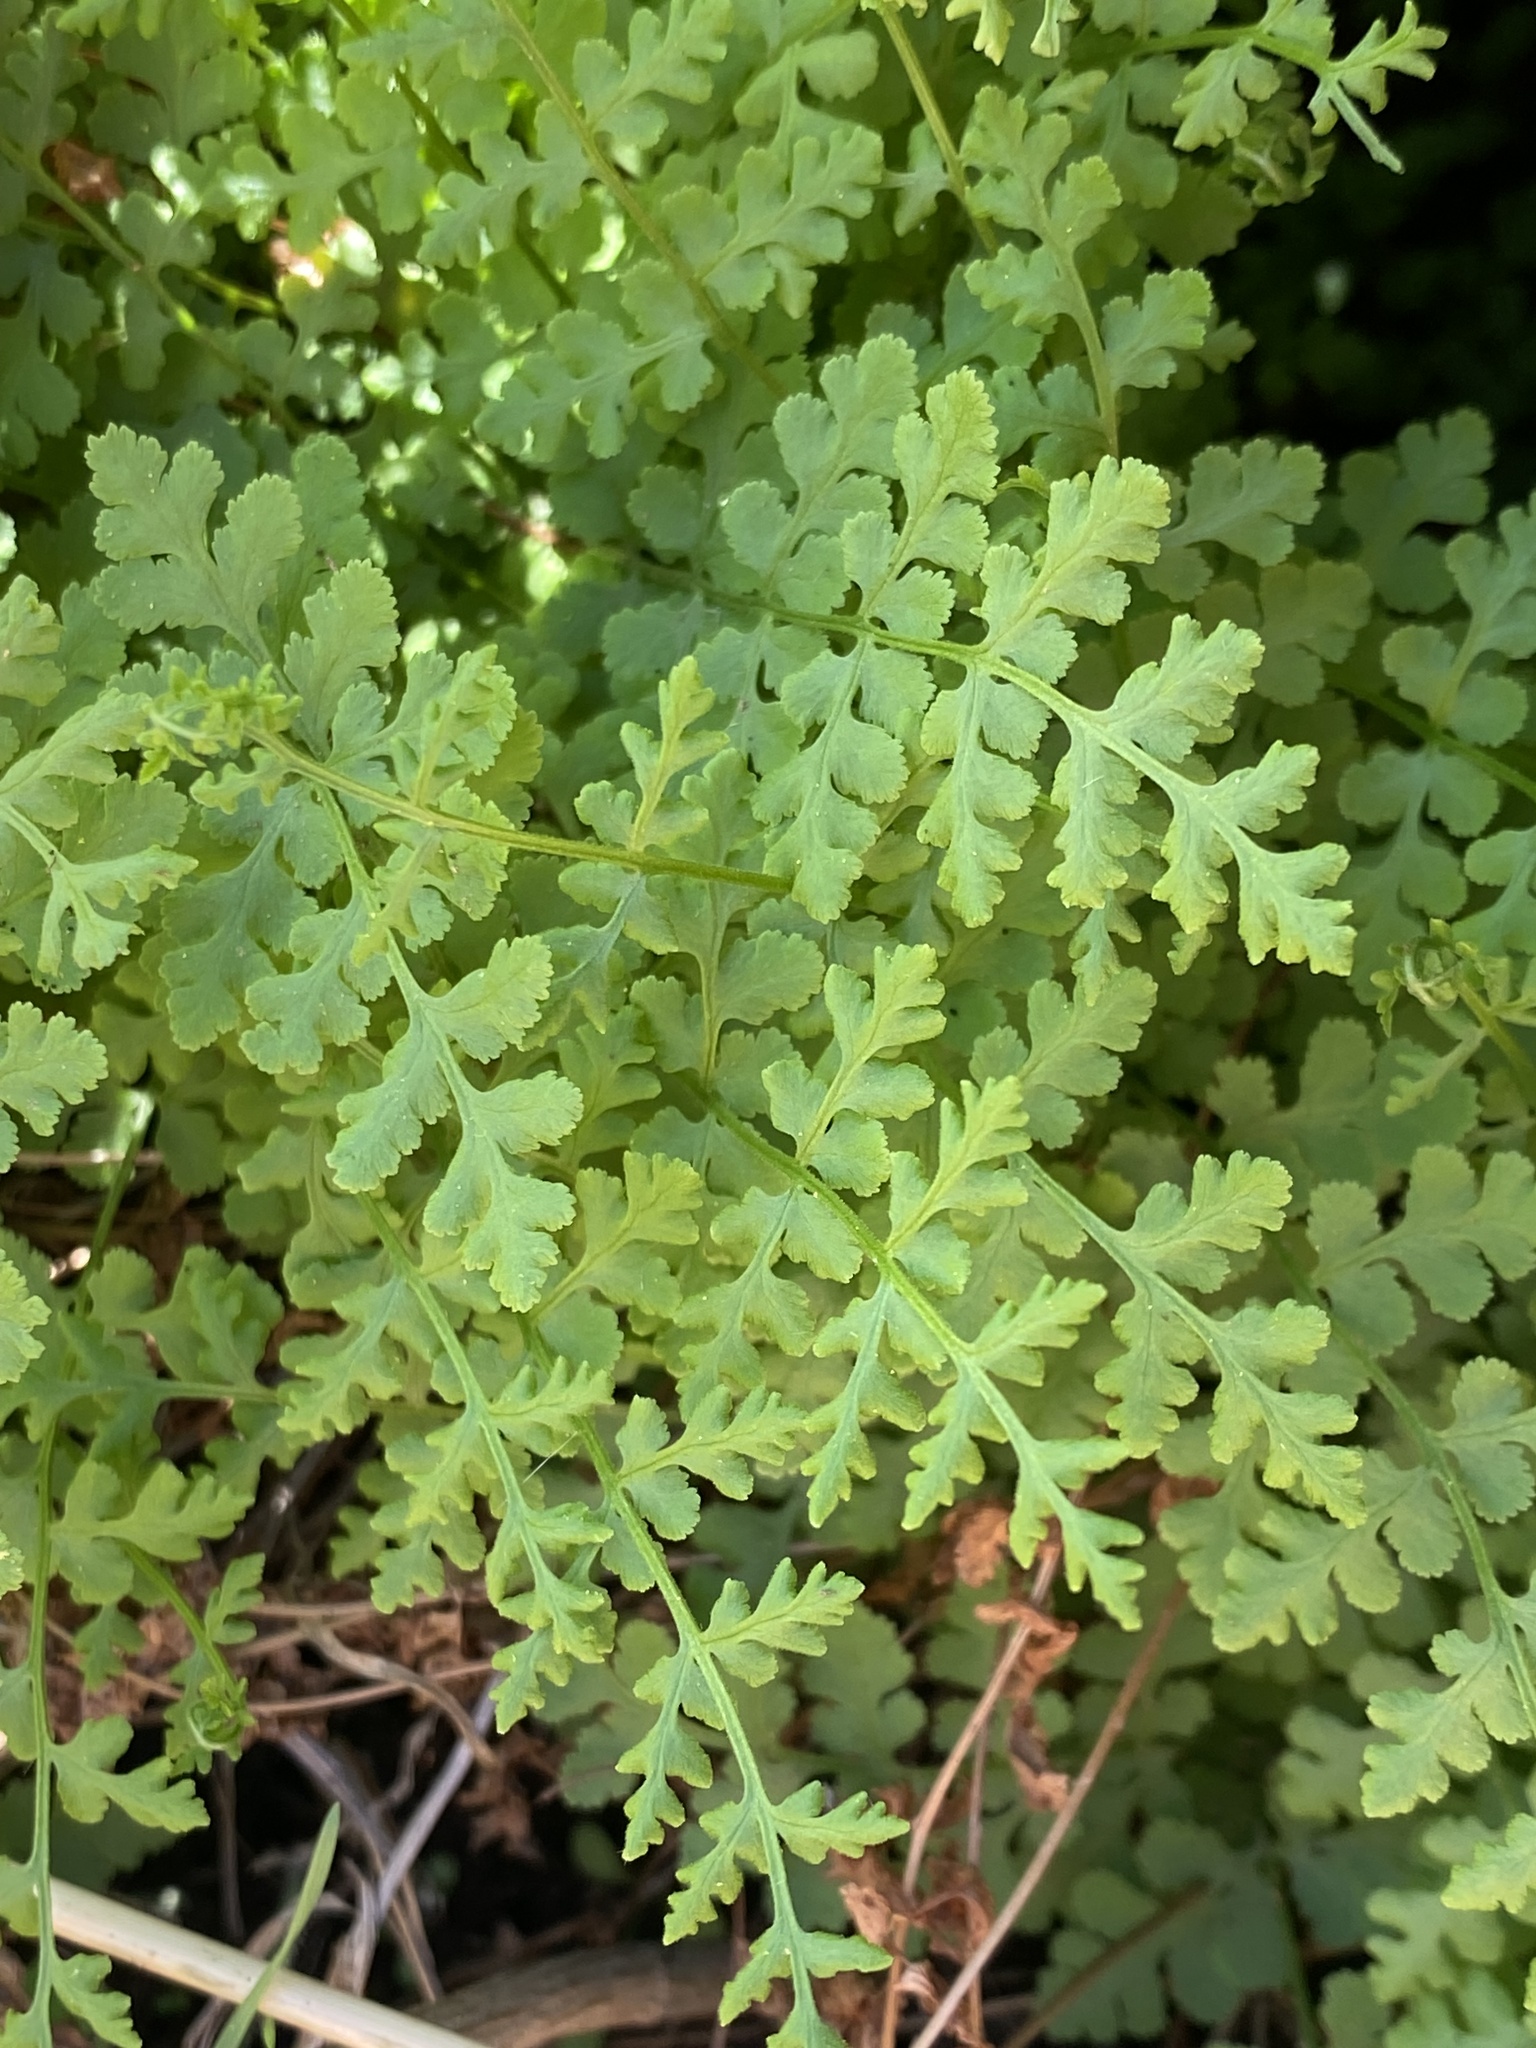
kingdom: Plantae
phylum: Tracheophyta
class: Polypodiopsida
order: Polypodiales
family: Woodsiaceae
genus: Physematium
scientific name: Physematium obtusum
